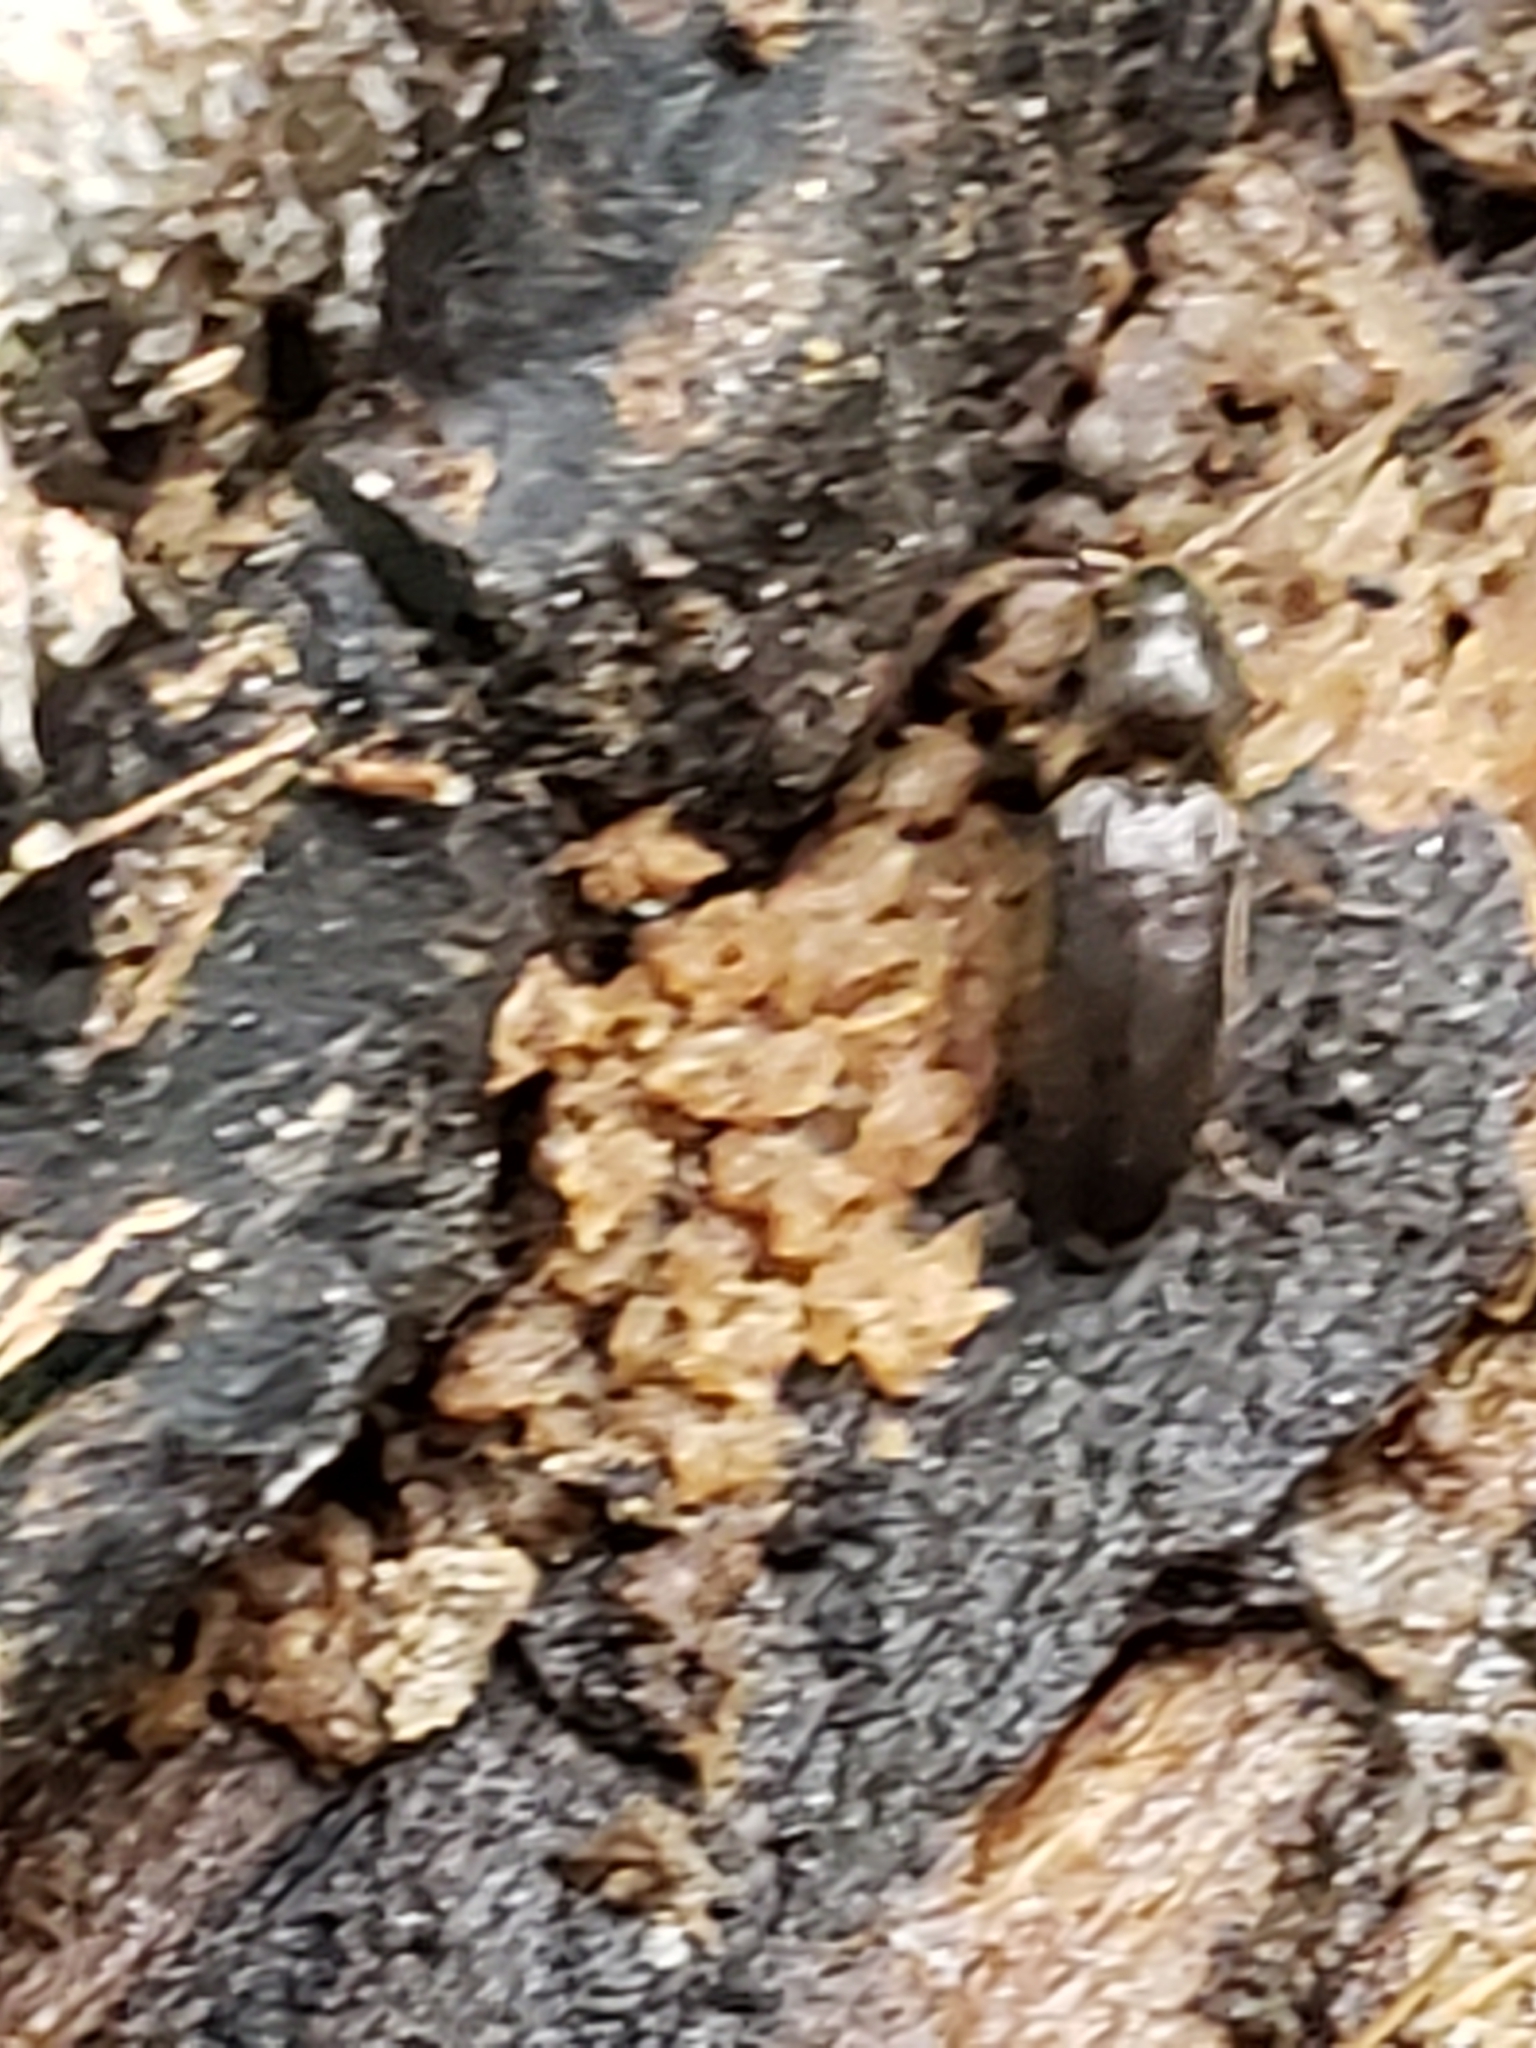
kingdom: Animalia
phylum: Arthropoda
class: Insecta
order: Coleoptera
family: Eucnemidae
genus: Isarthrus
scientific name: Isarthrus calceatus
